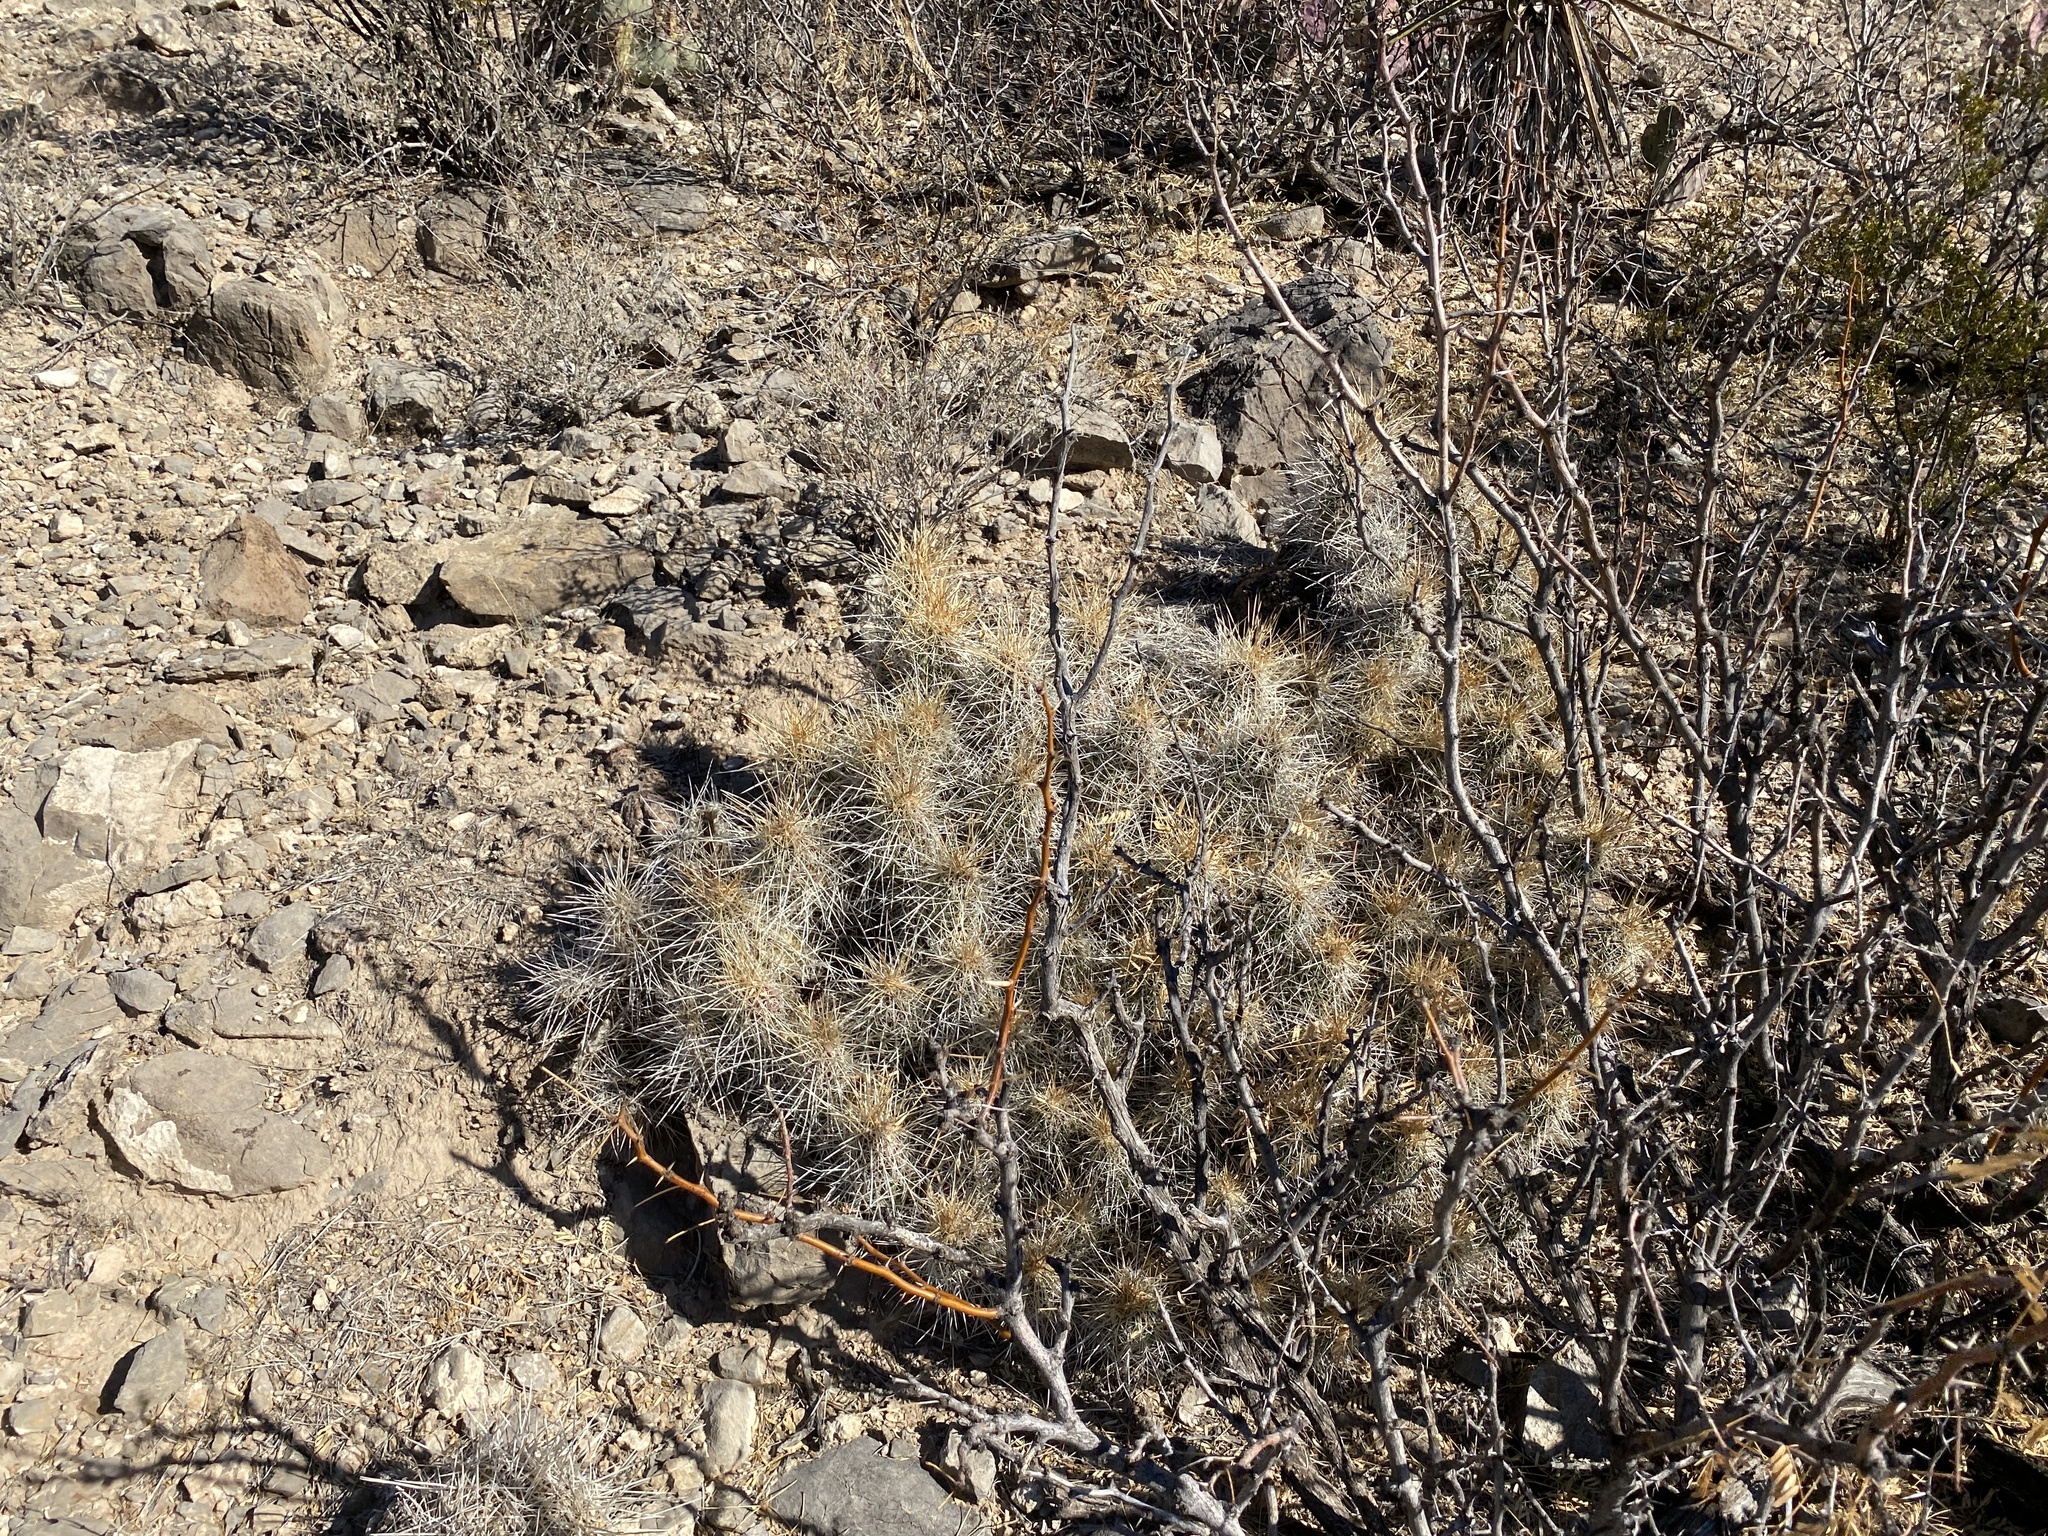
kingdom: Plantae
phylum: Tracheophyta
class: Magnoliopsida
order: Caryophyllales
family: Cactaceae
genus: Echinocereus
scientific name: Echinocereus stramineus
